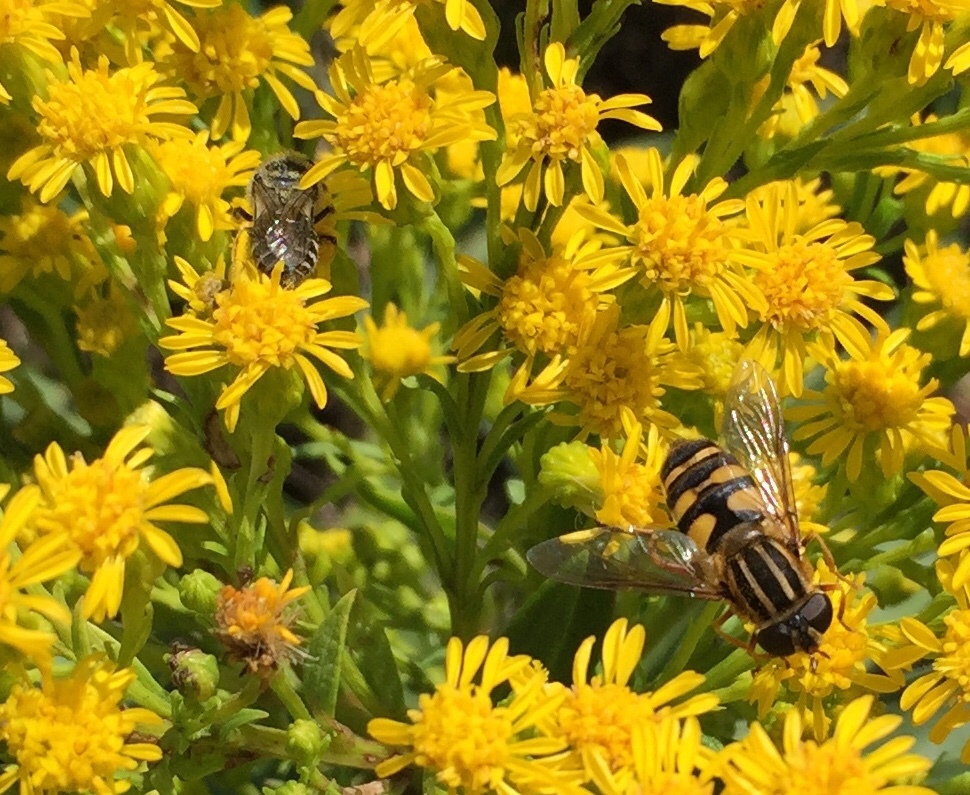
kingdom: Animalia
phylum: Arthropoda
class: Insecta
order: Diptera
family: Syrphidae
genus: Helophilus
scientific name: Helophilus fasciatus
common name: Narrow-headed marsh fly
